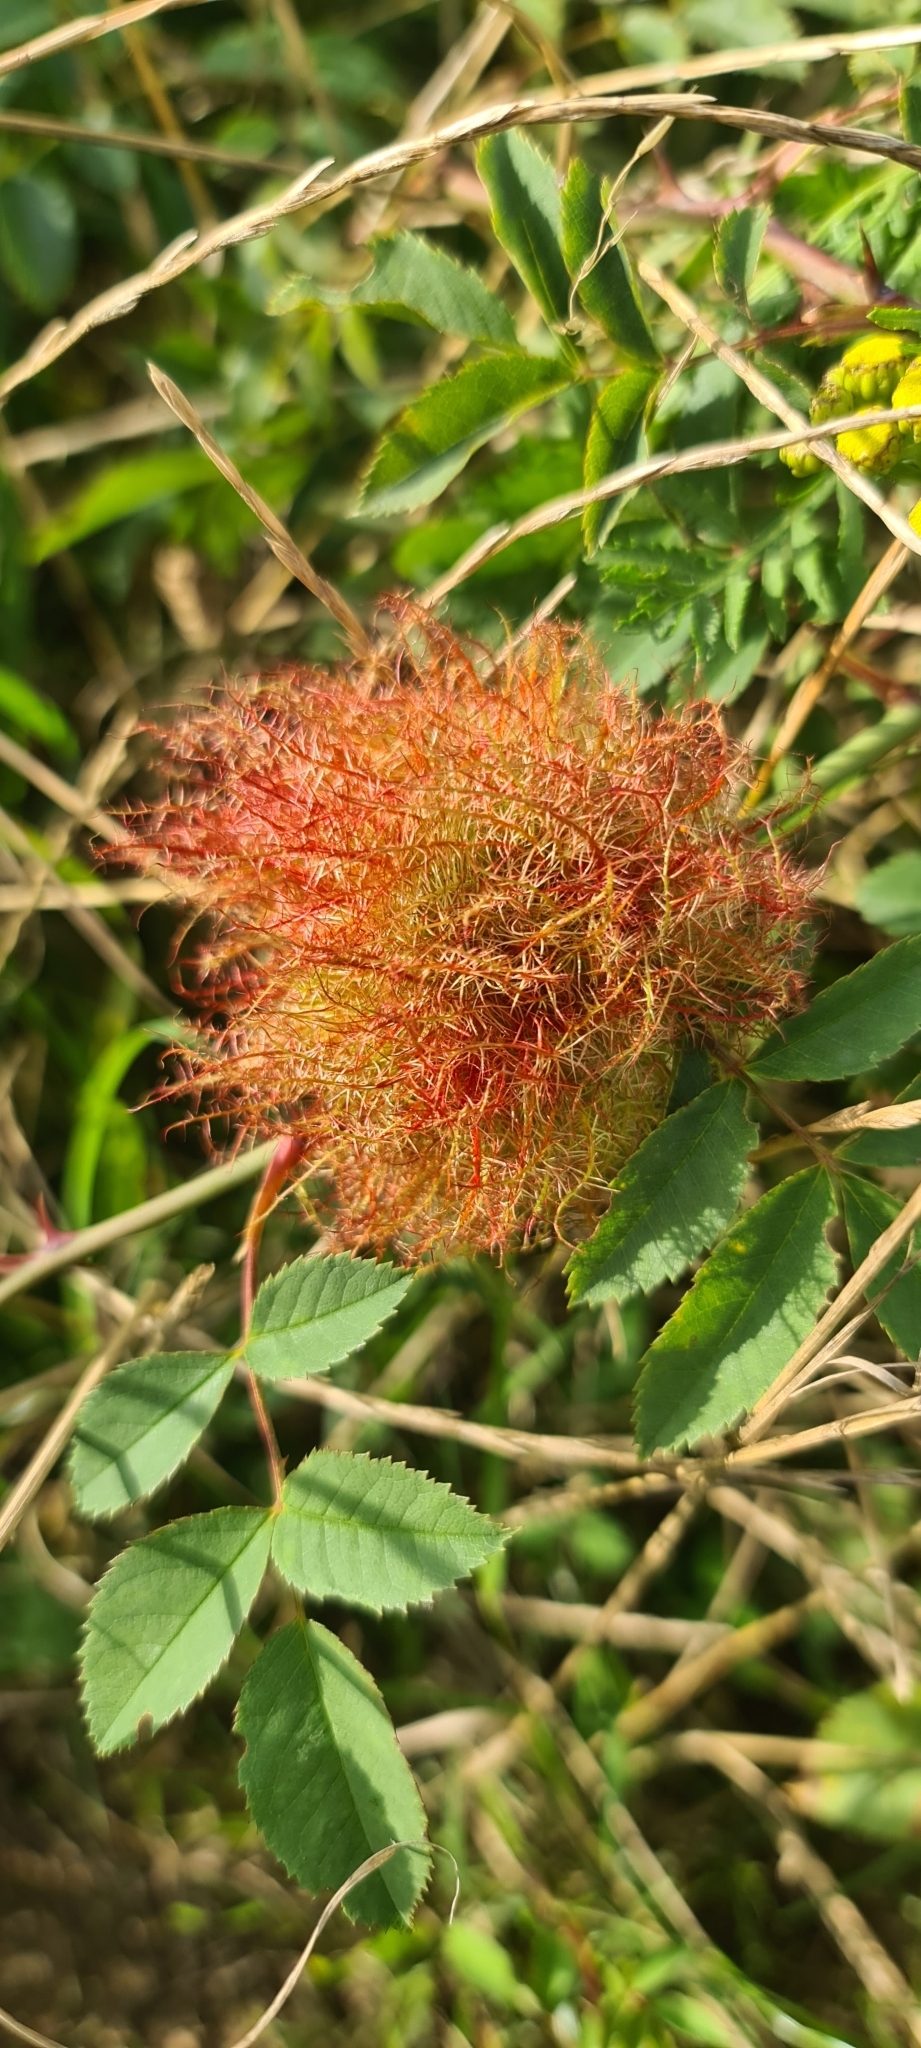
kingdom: Animalia
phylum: Arthropoda
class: Insecta
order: Hymenoptera
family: Cynipidae
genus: Diplolepis
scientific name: Diplolepis rosae
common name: Bedeguar gall
